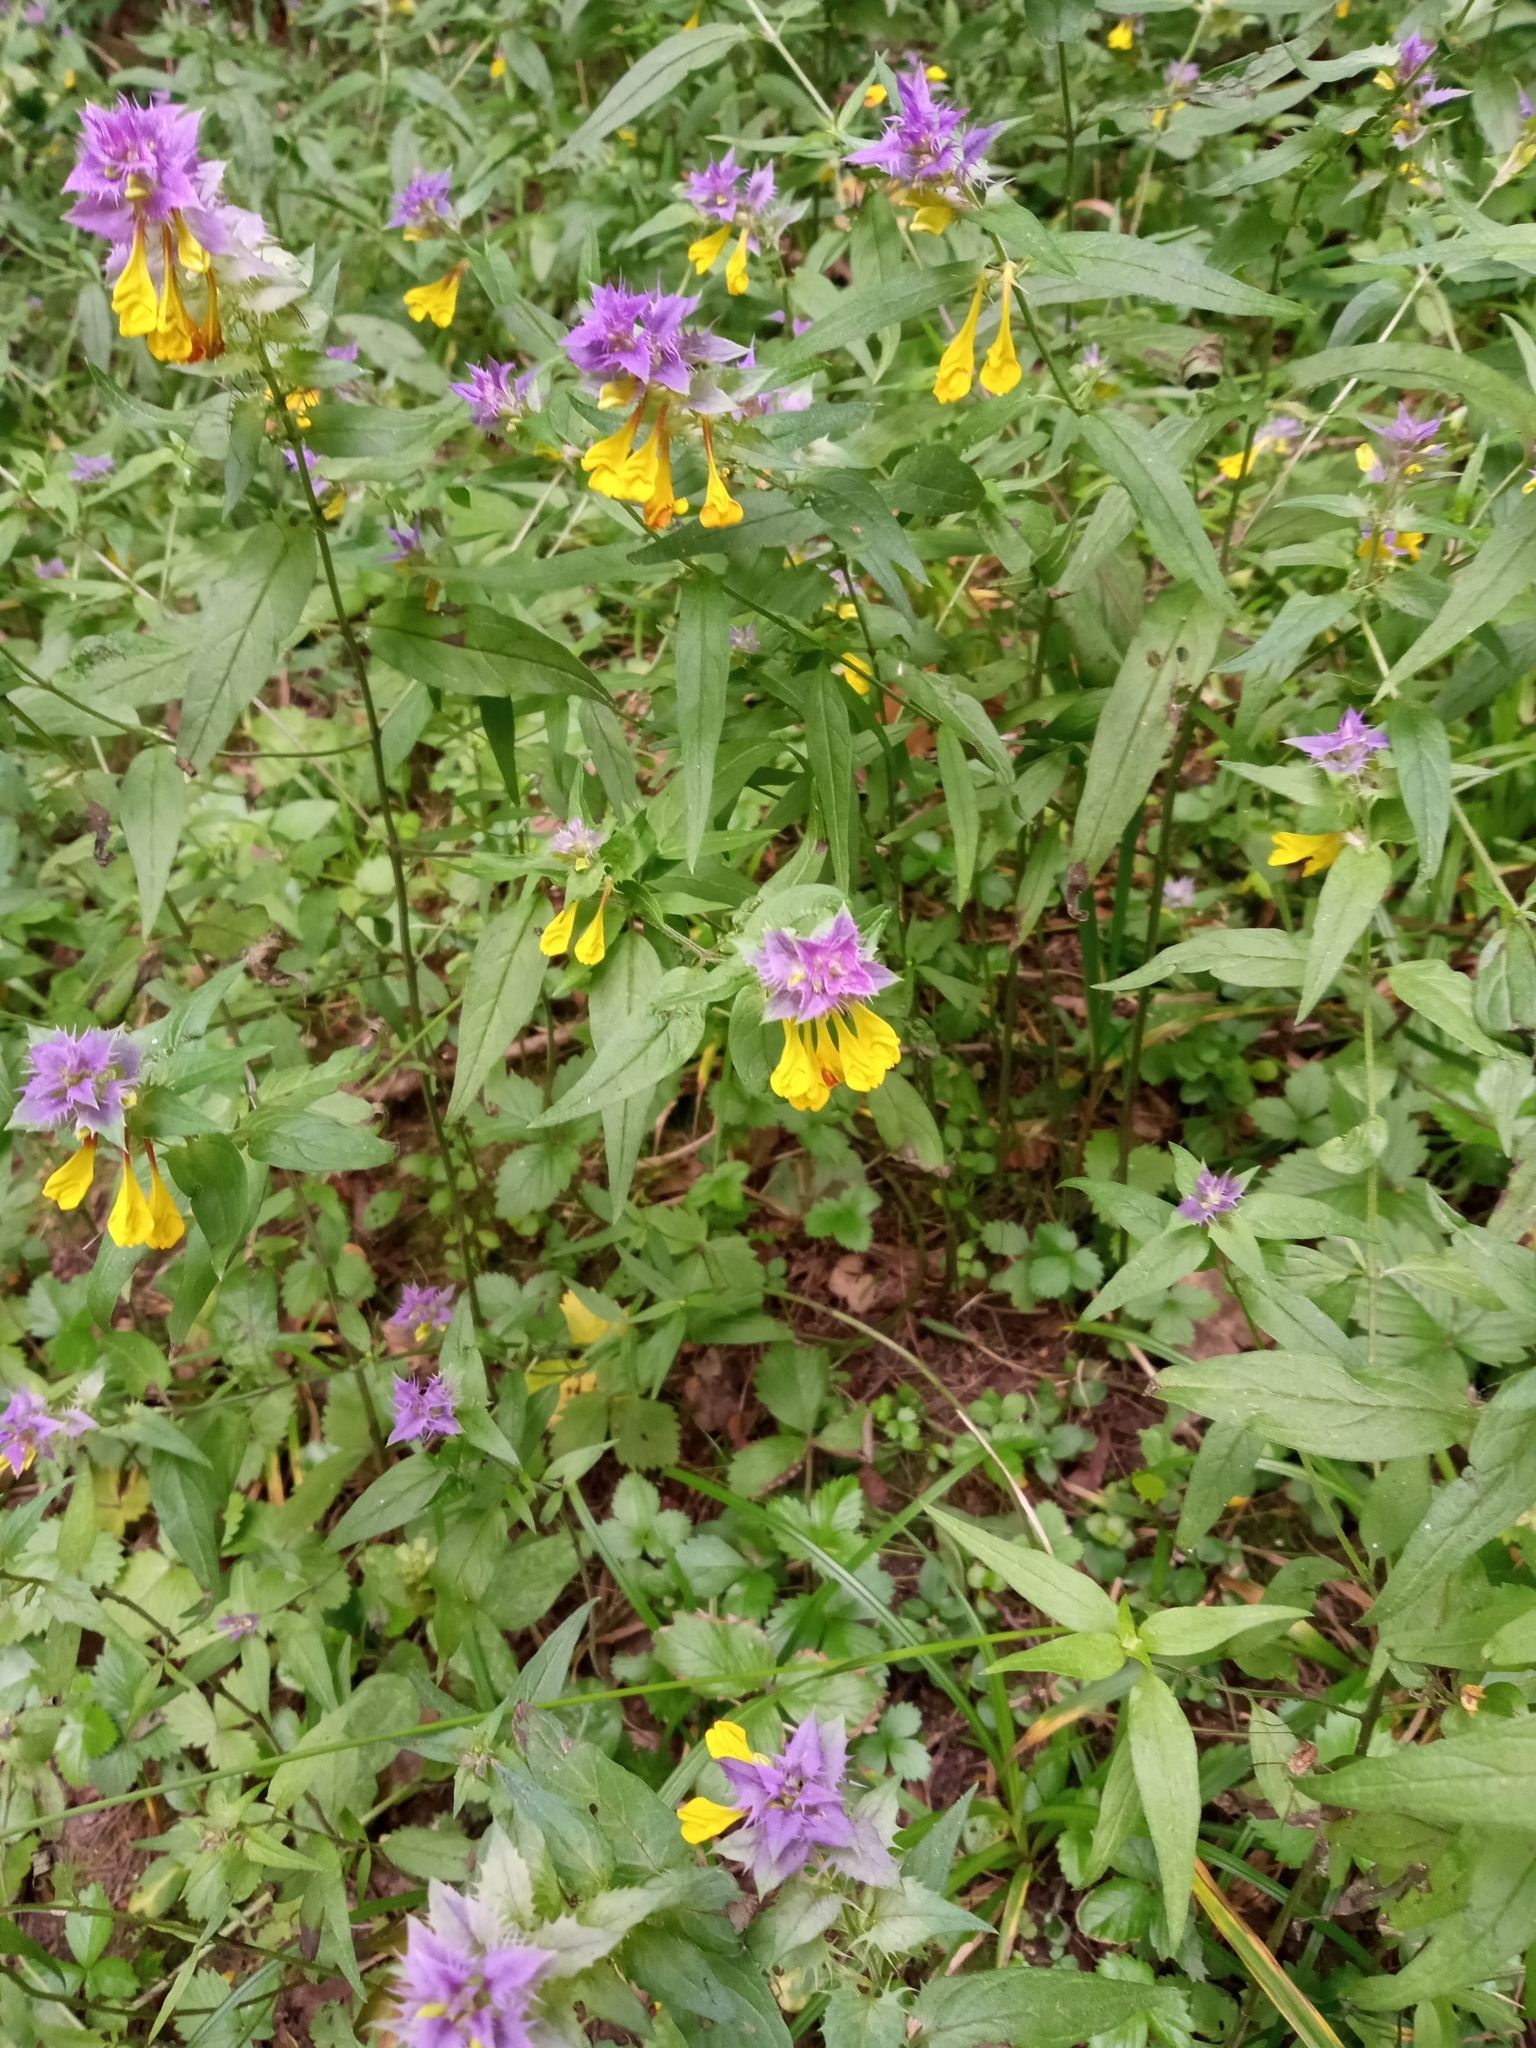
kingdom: Plantae
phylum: Tracheophyta
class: Magnoliopsida
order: Lamiales
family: Orobanchaceae
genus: Melampyrum
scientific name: Melampyrum nemorosum
